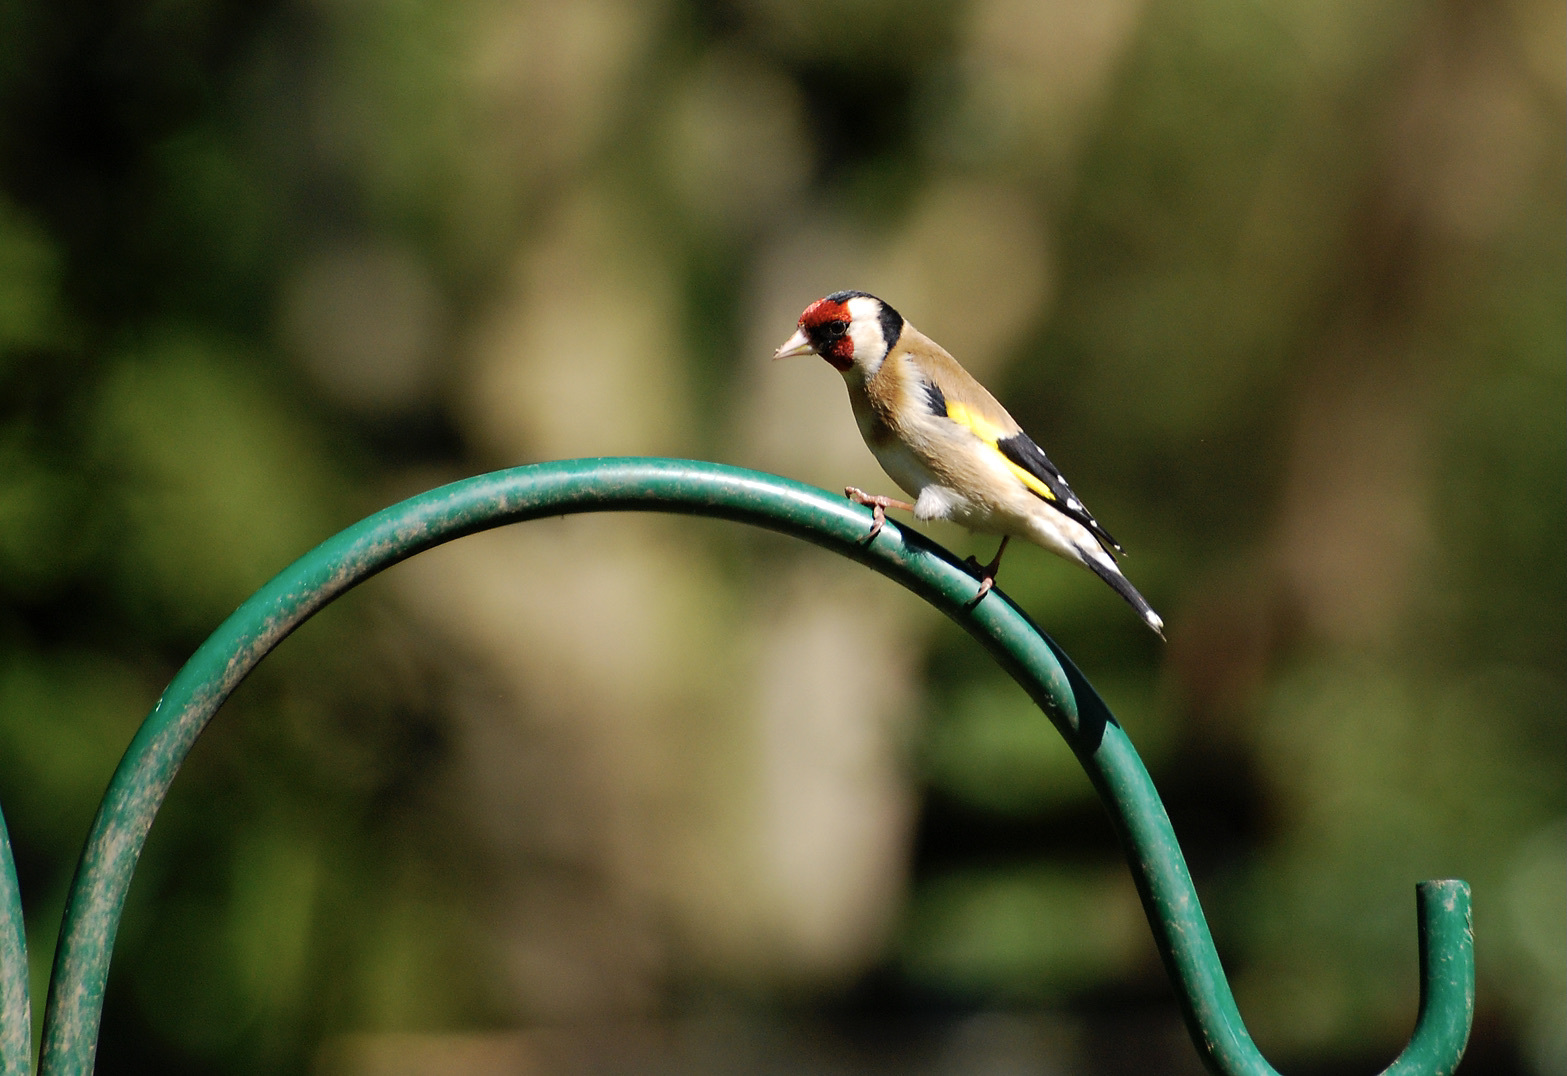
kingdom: Animalia
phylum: Chordata
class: Aves
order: Passeriformes
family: Fringillidae
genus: Carduelis
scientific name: Carduelis carduelis
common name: European goldfinch
